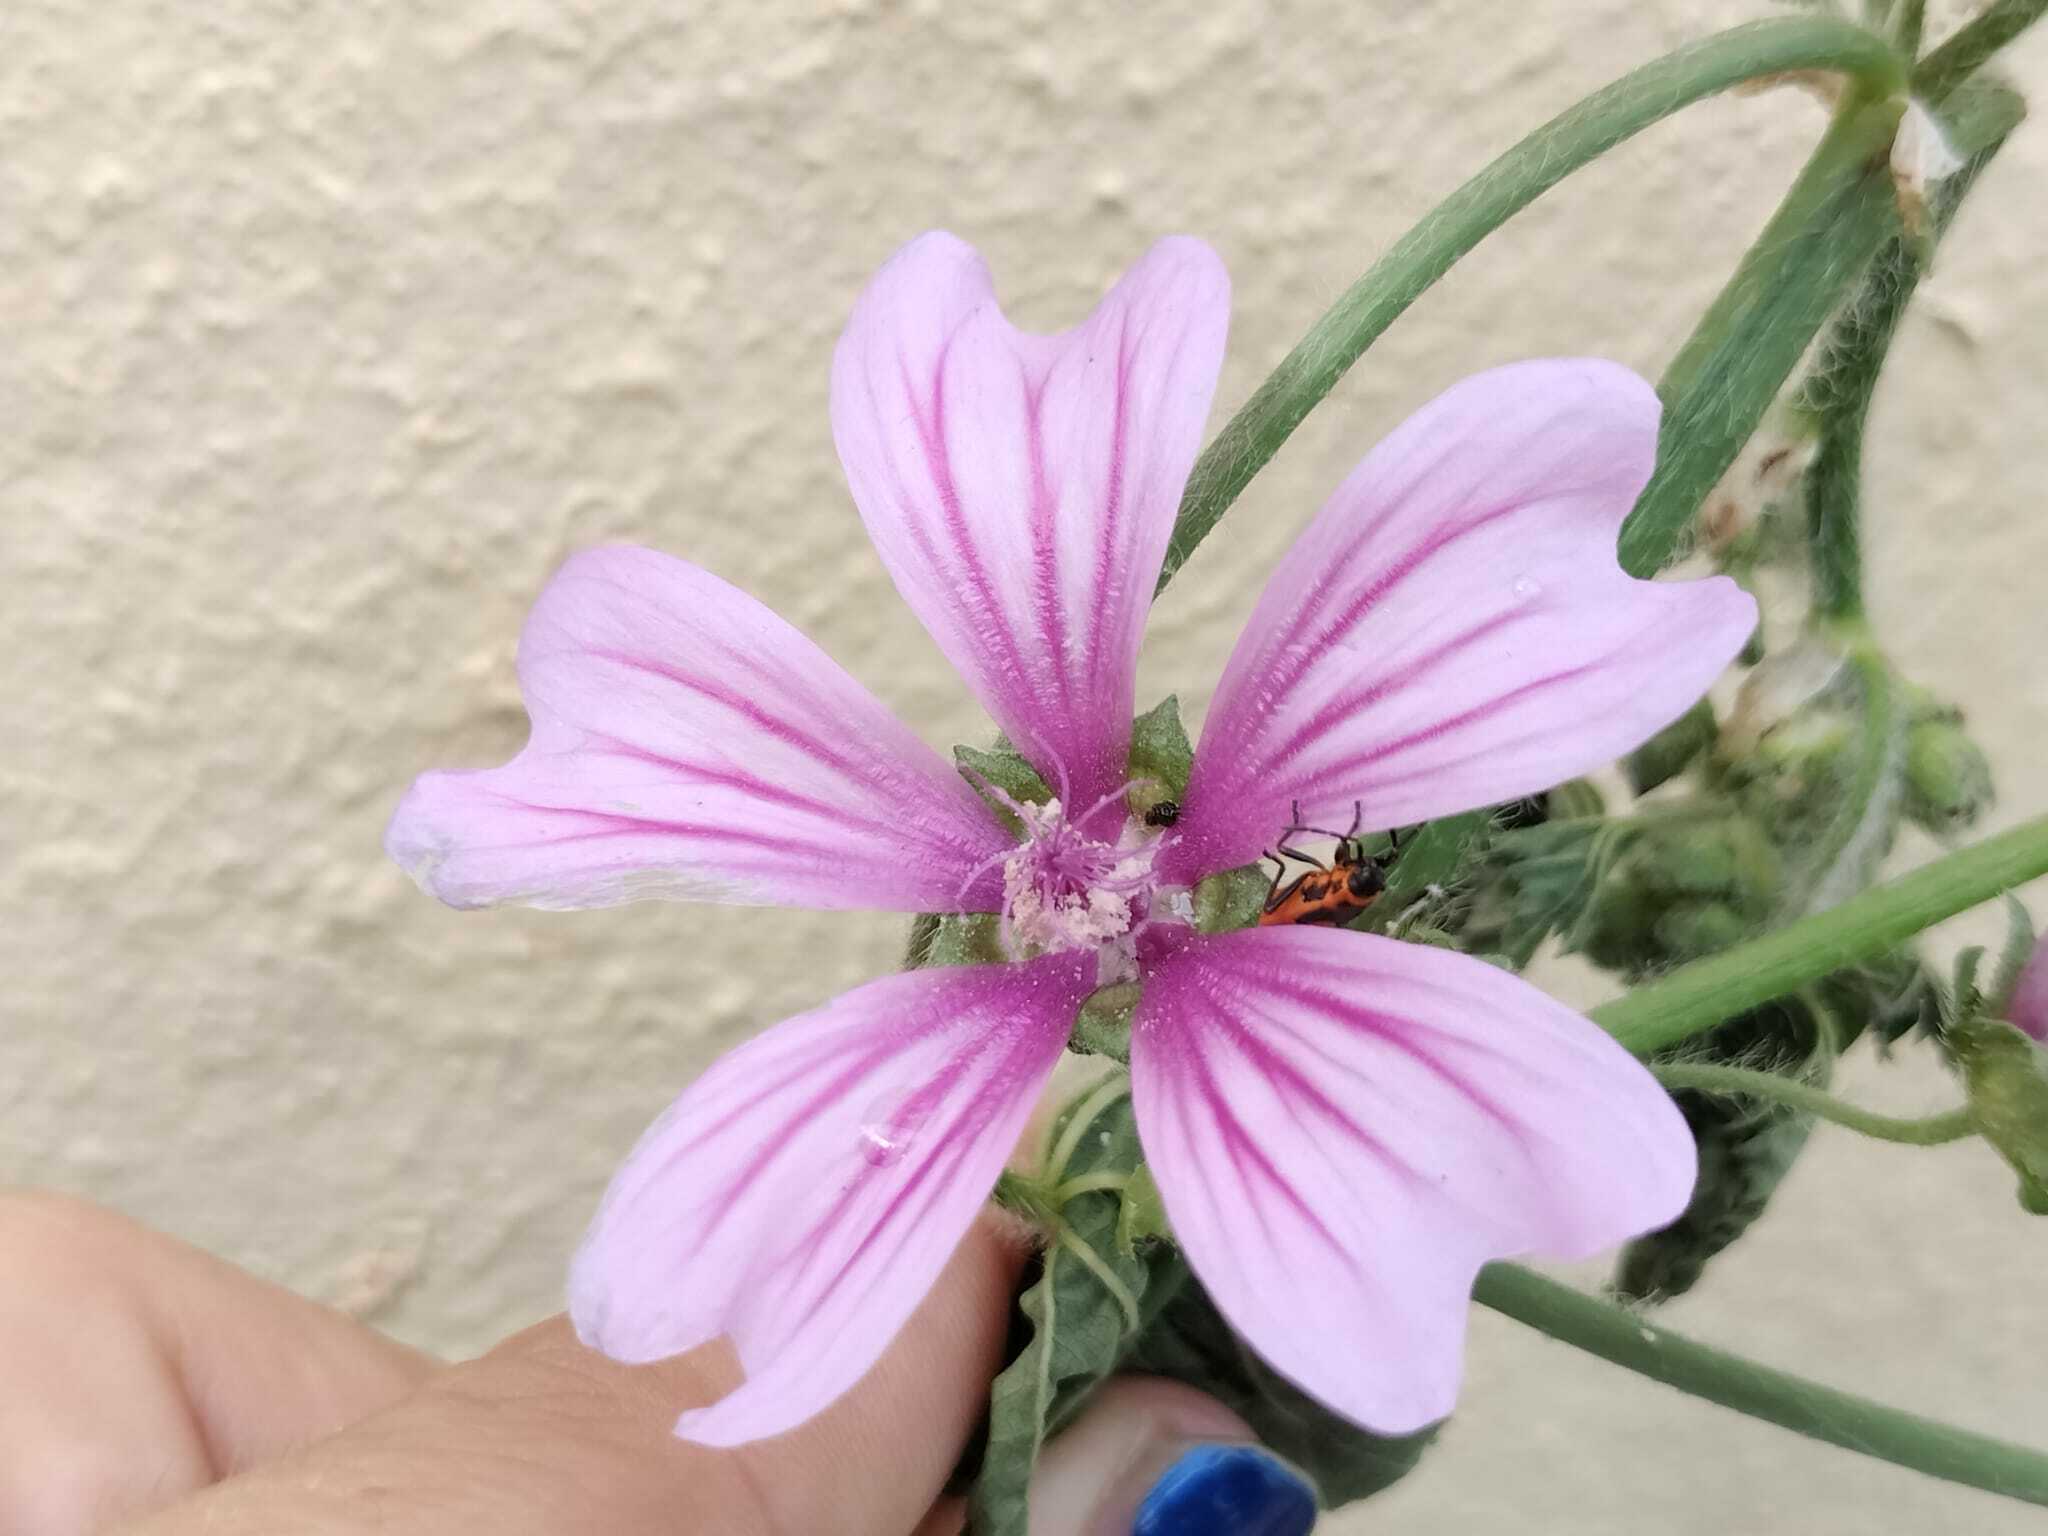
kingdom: Plantae
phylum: Tracheophyta
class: Magnoliopsida
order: Malvales
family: Malvaceae
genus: Malva
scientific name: Malva sylvestris
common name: Common mallow
